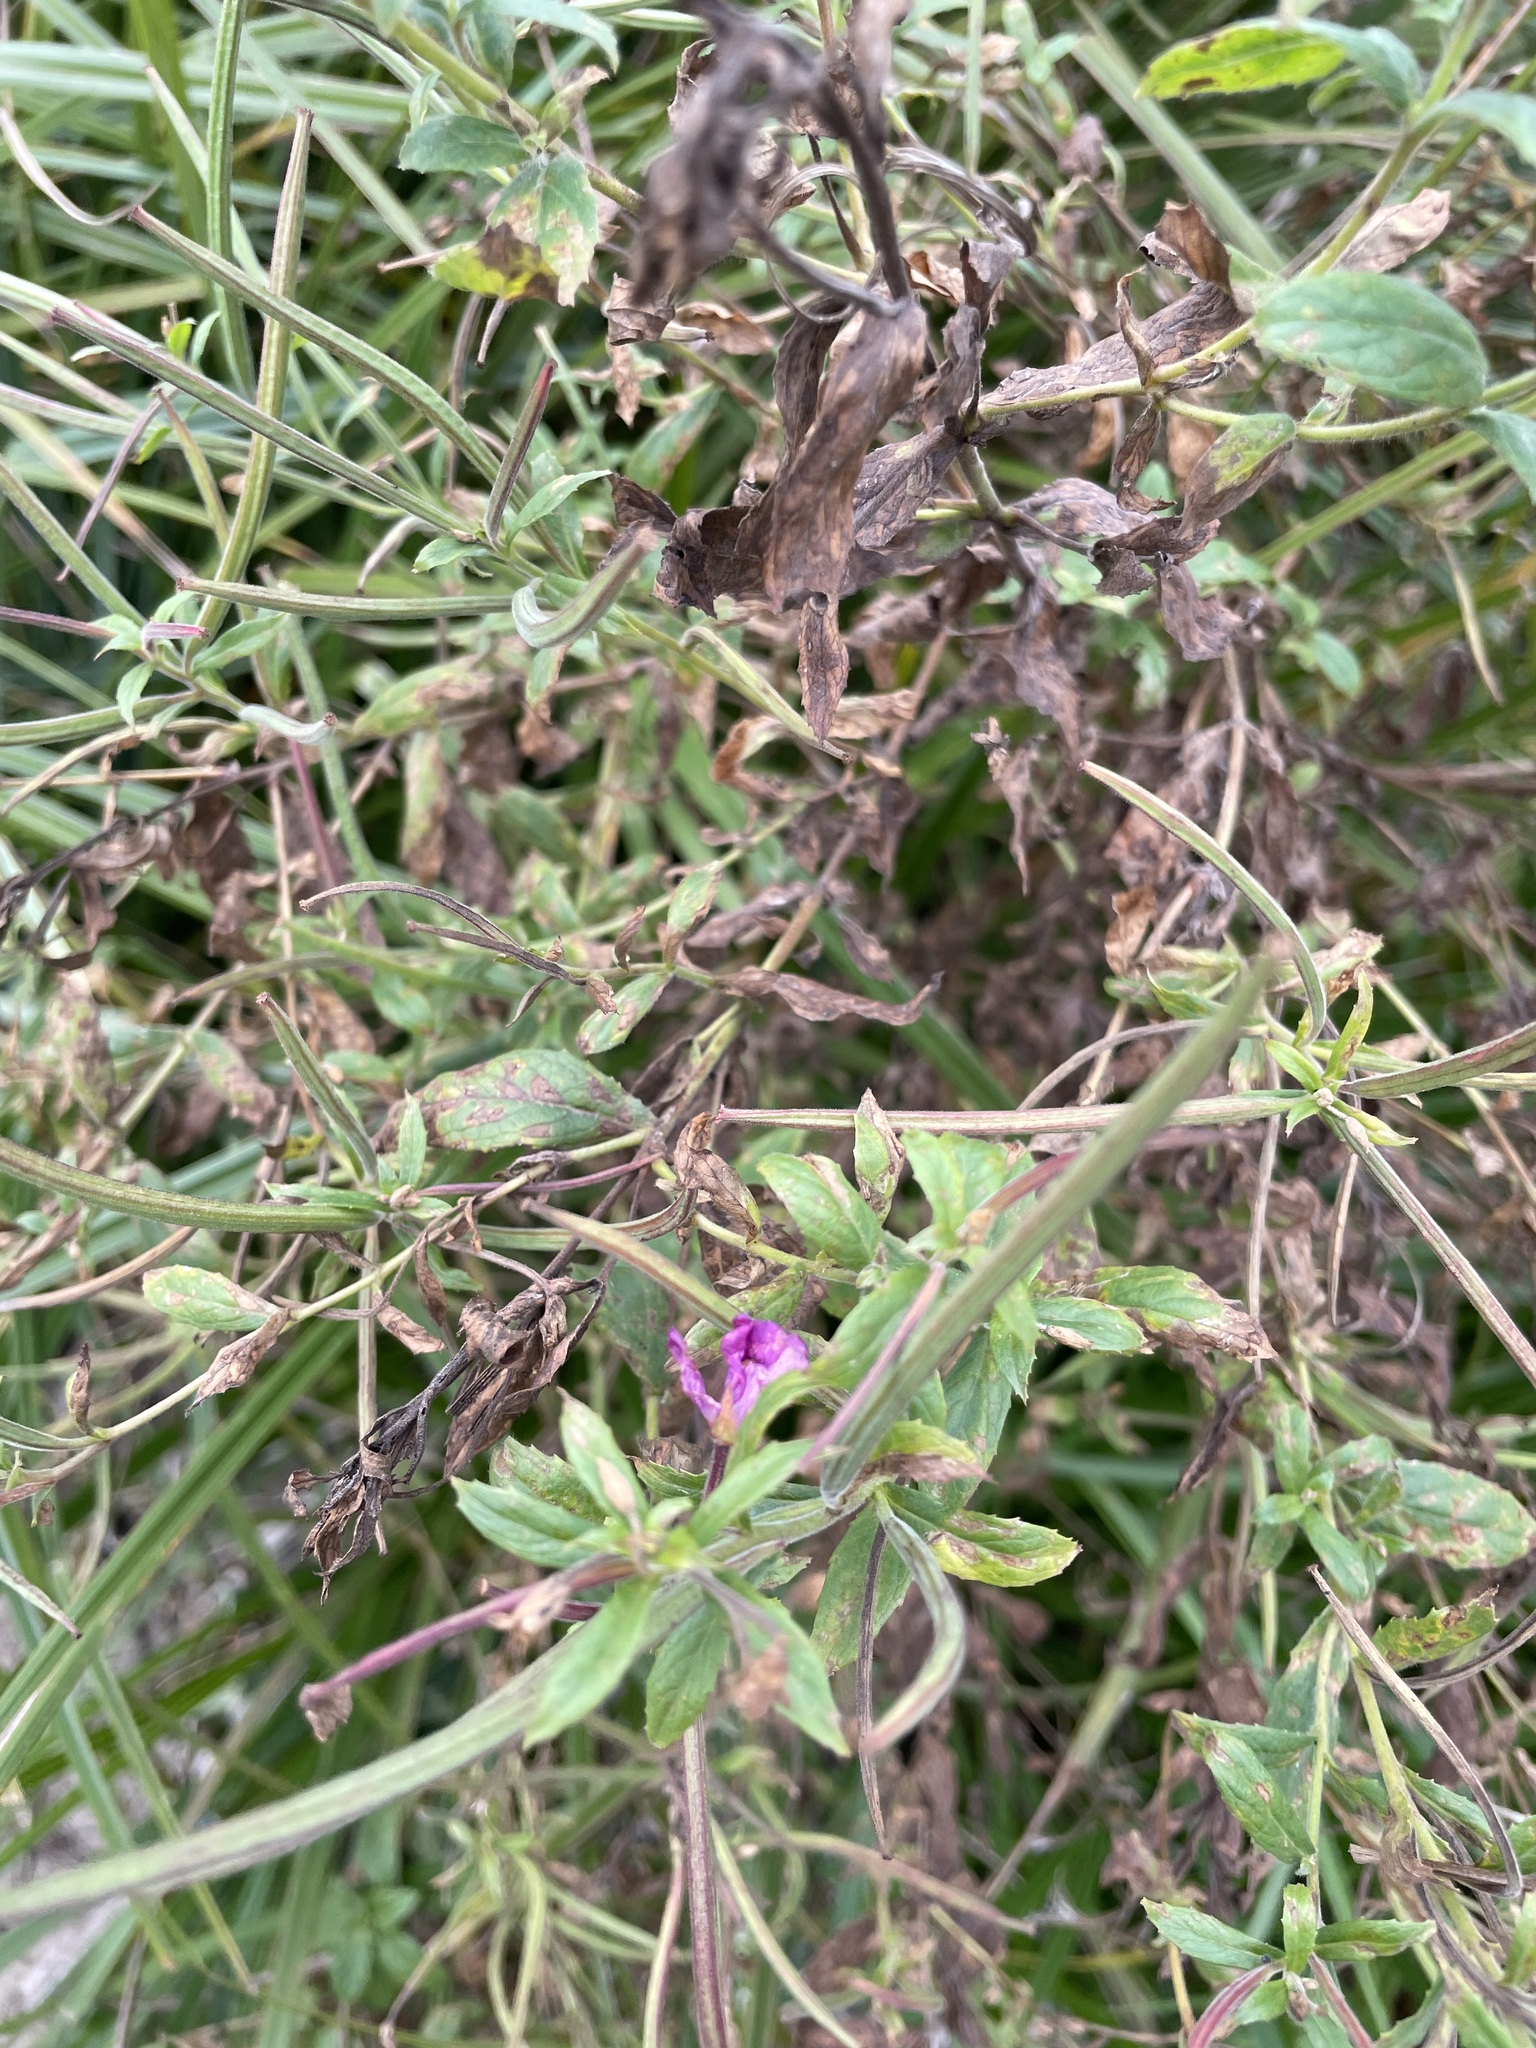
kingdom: Plantae
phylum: Tracheophyta
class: Magnoliopsida
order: Myrtales
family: Onagraceae
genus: Epilobium
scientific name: Epilobium hirsutum
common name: Great willowherb
